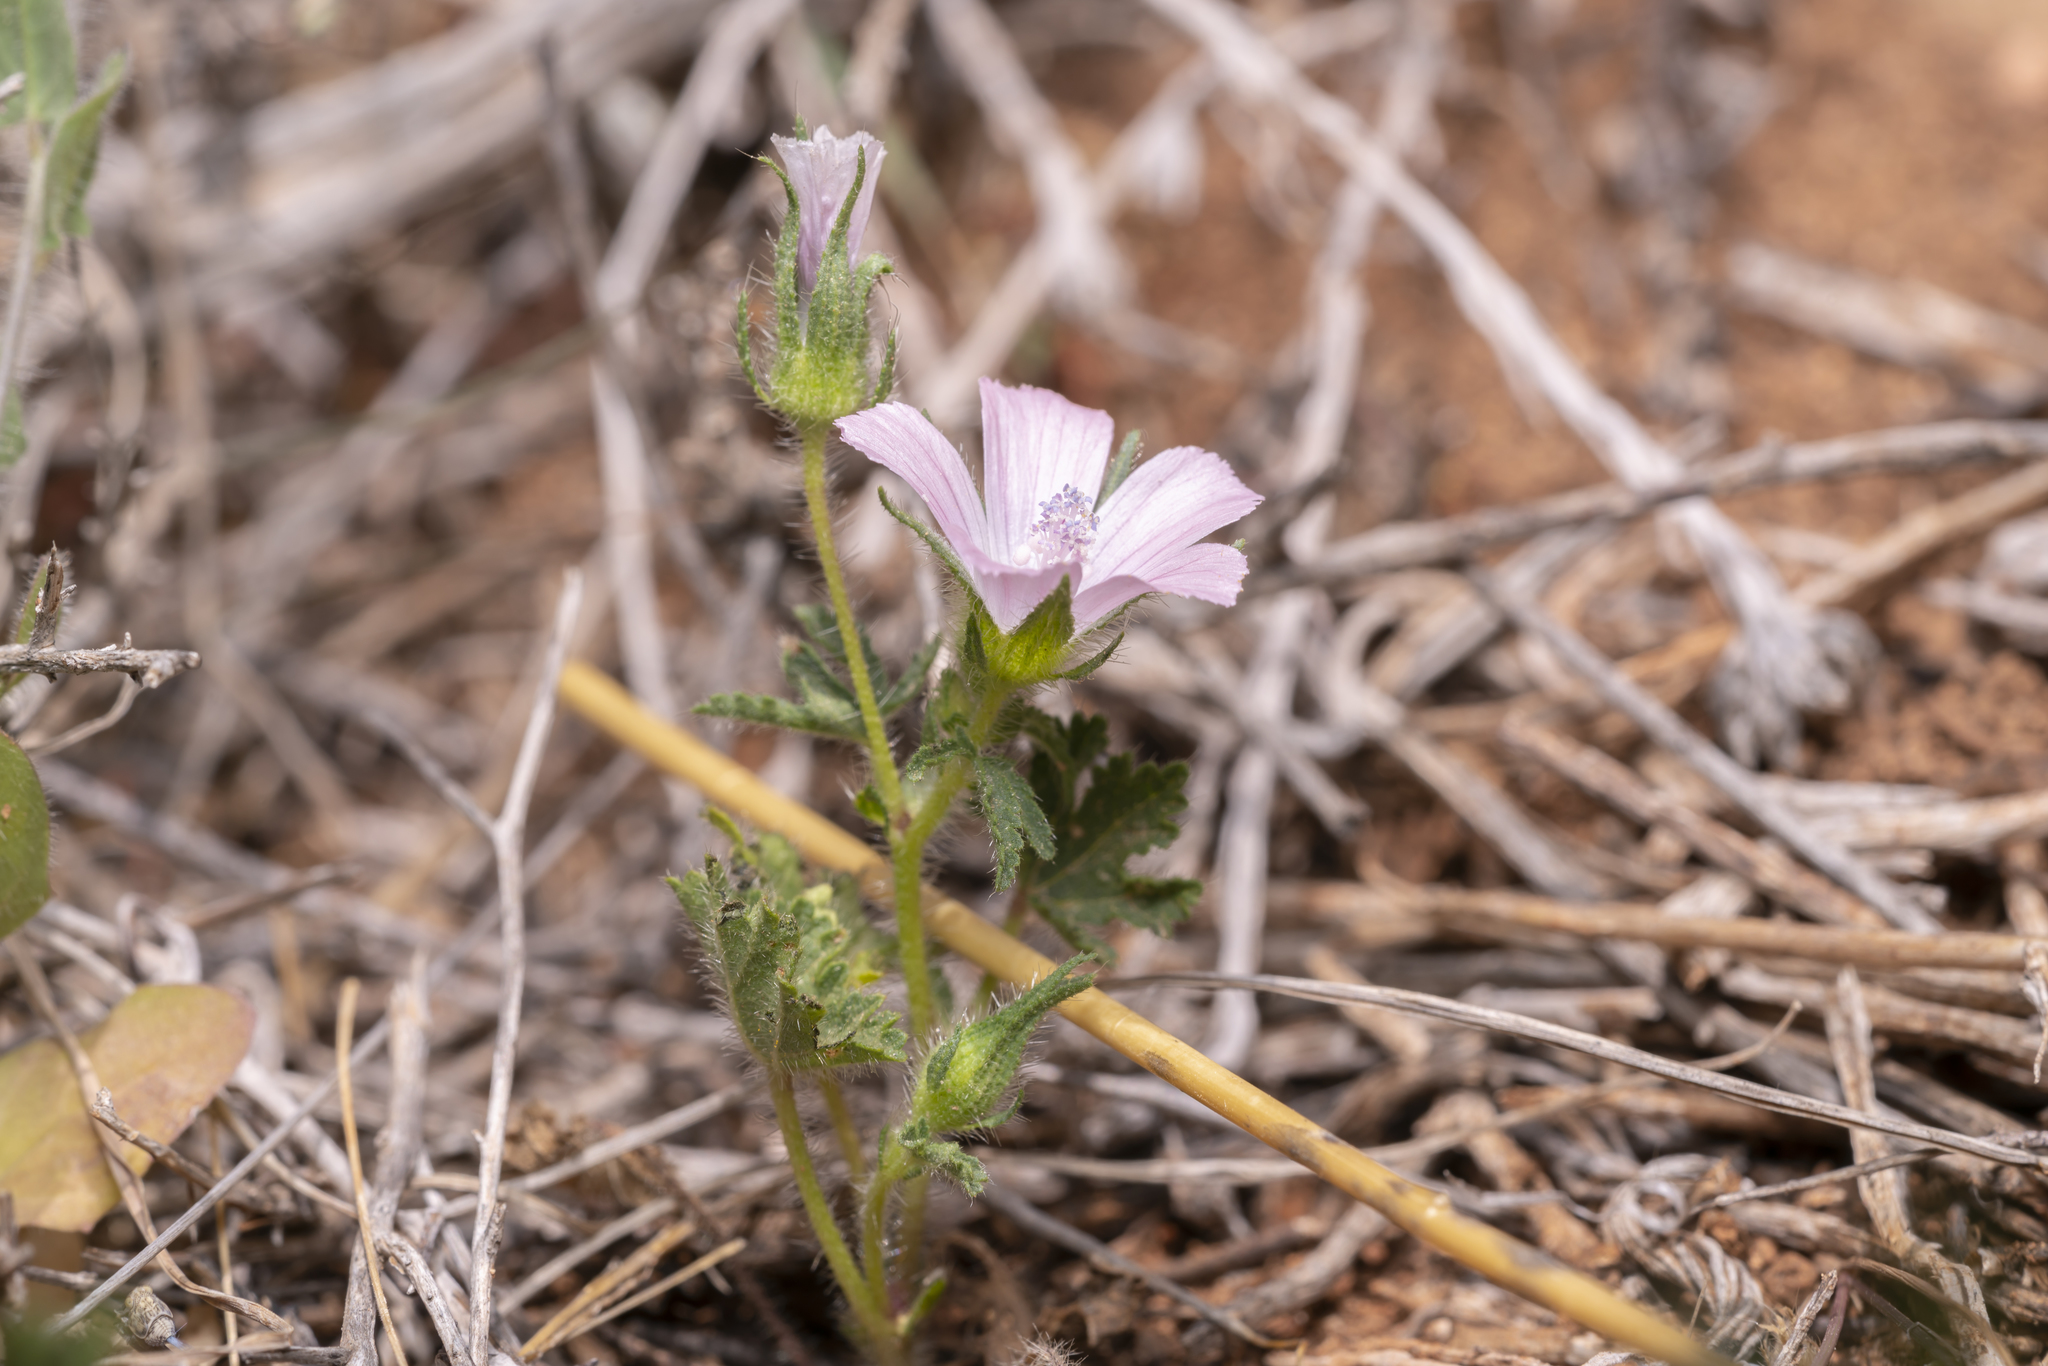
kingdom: Plantae
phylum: Tracheophyta
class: Magnoliopsida
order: Malvales
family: Malvaceae
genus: Malva
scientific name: Malva cretica
